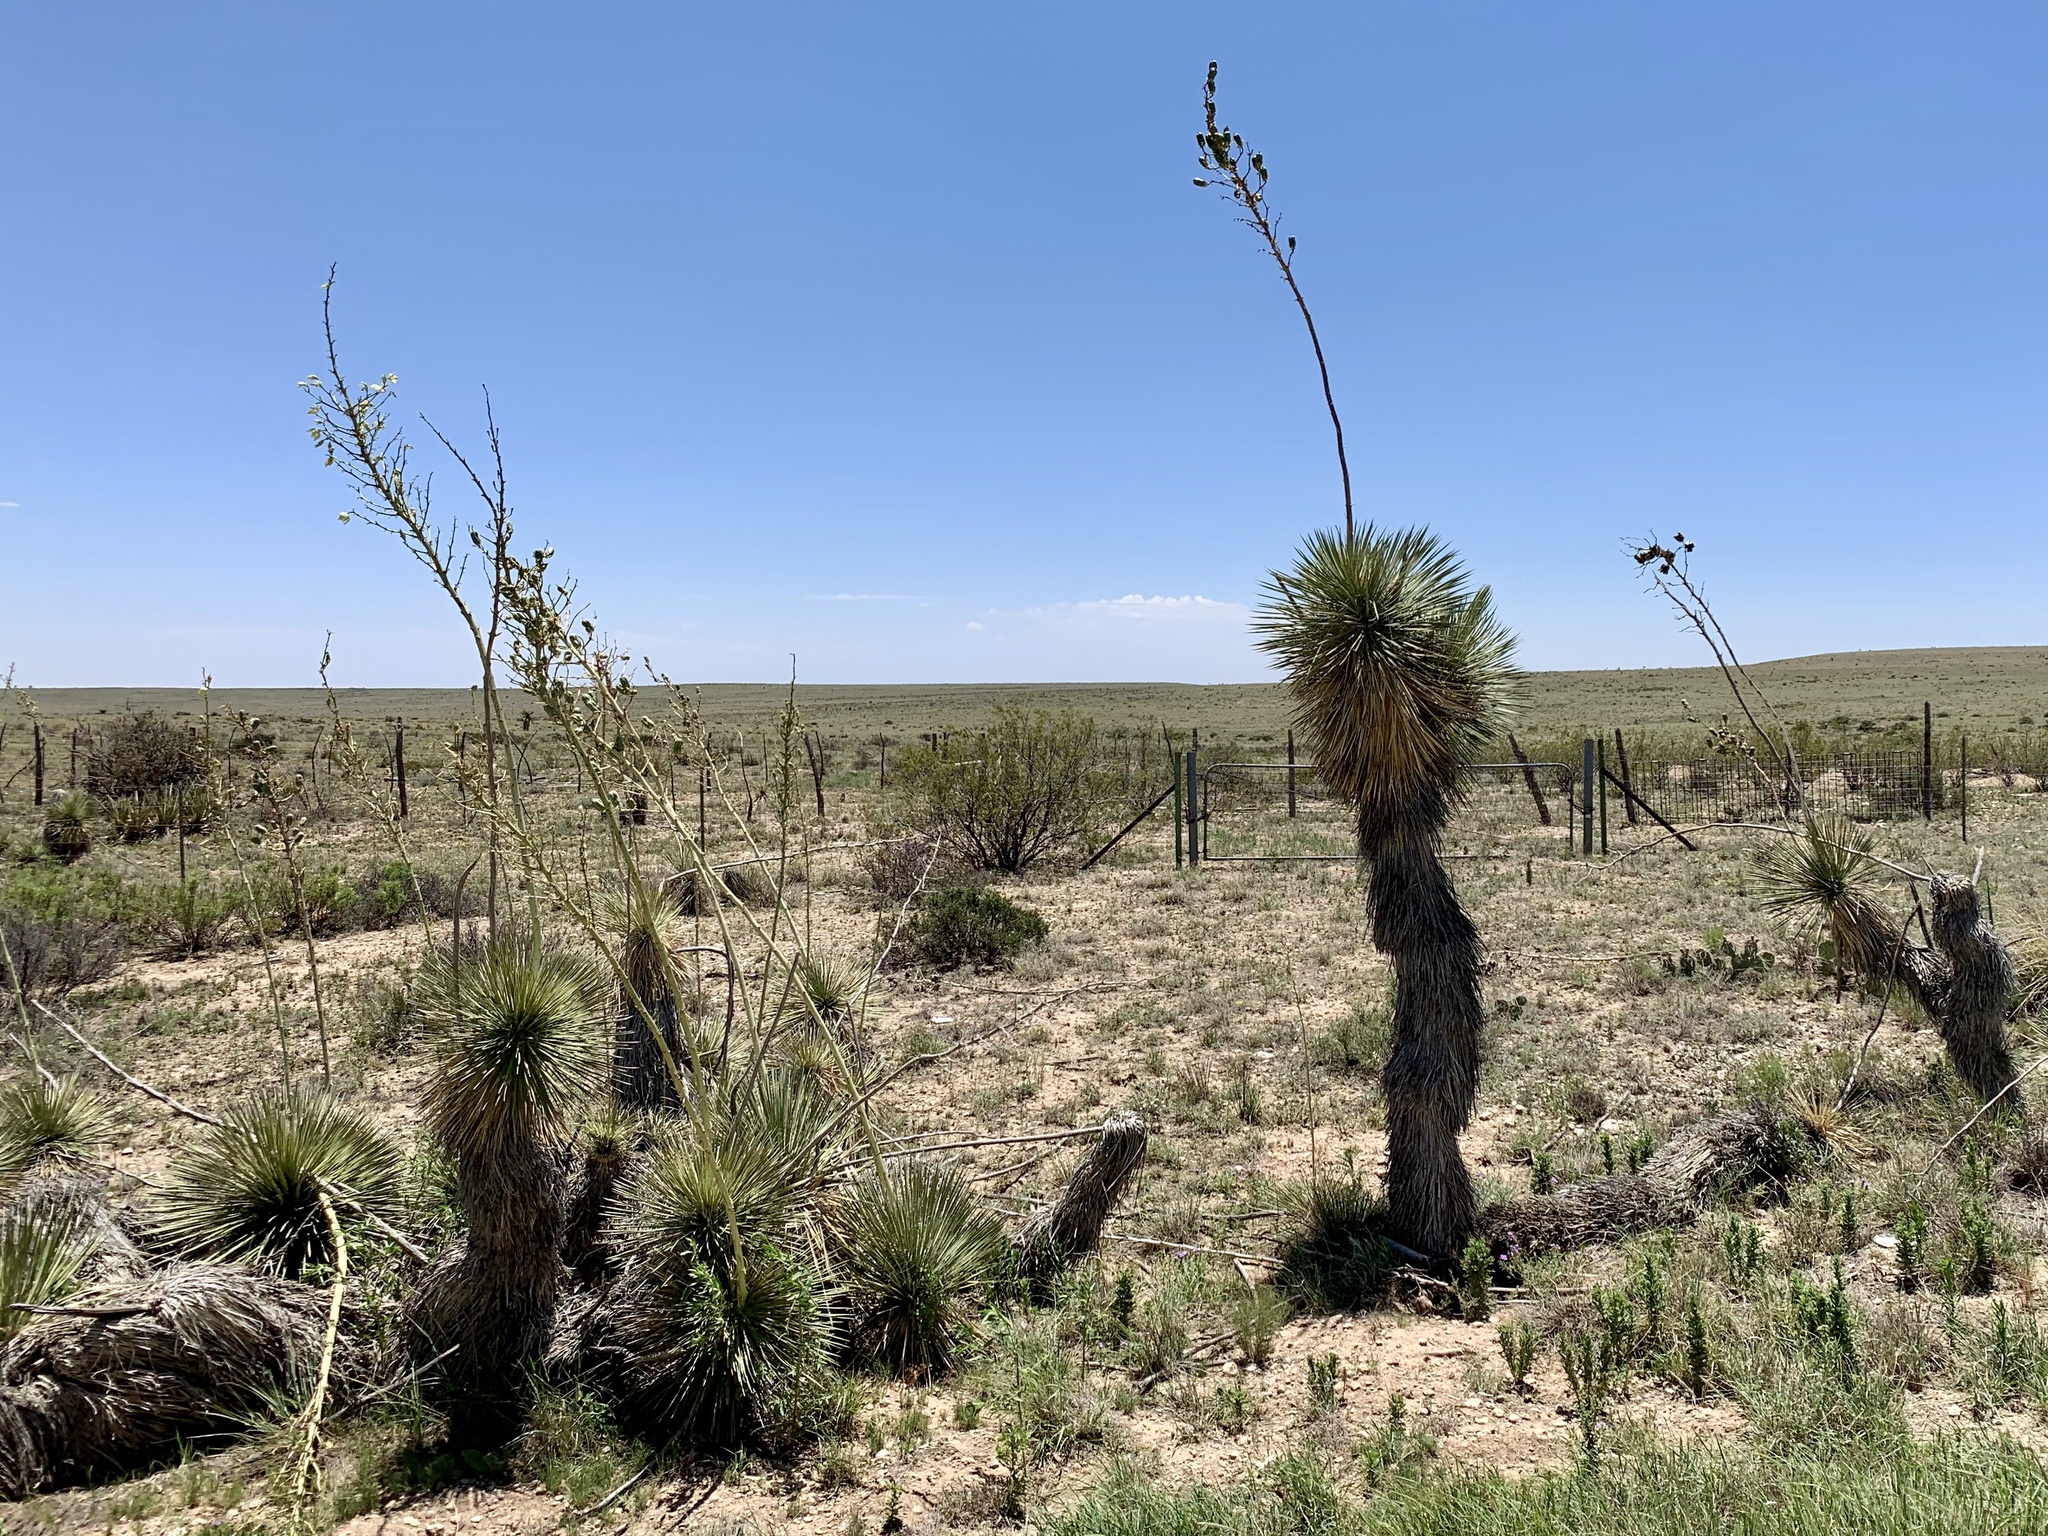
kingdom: Plantae
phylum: Tracheophyta
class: Liliopsida
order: Asparagales
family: Asparagaceae
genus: Yucca
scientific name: Yucca elata
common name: Palmella
